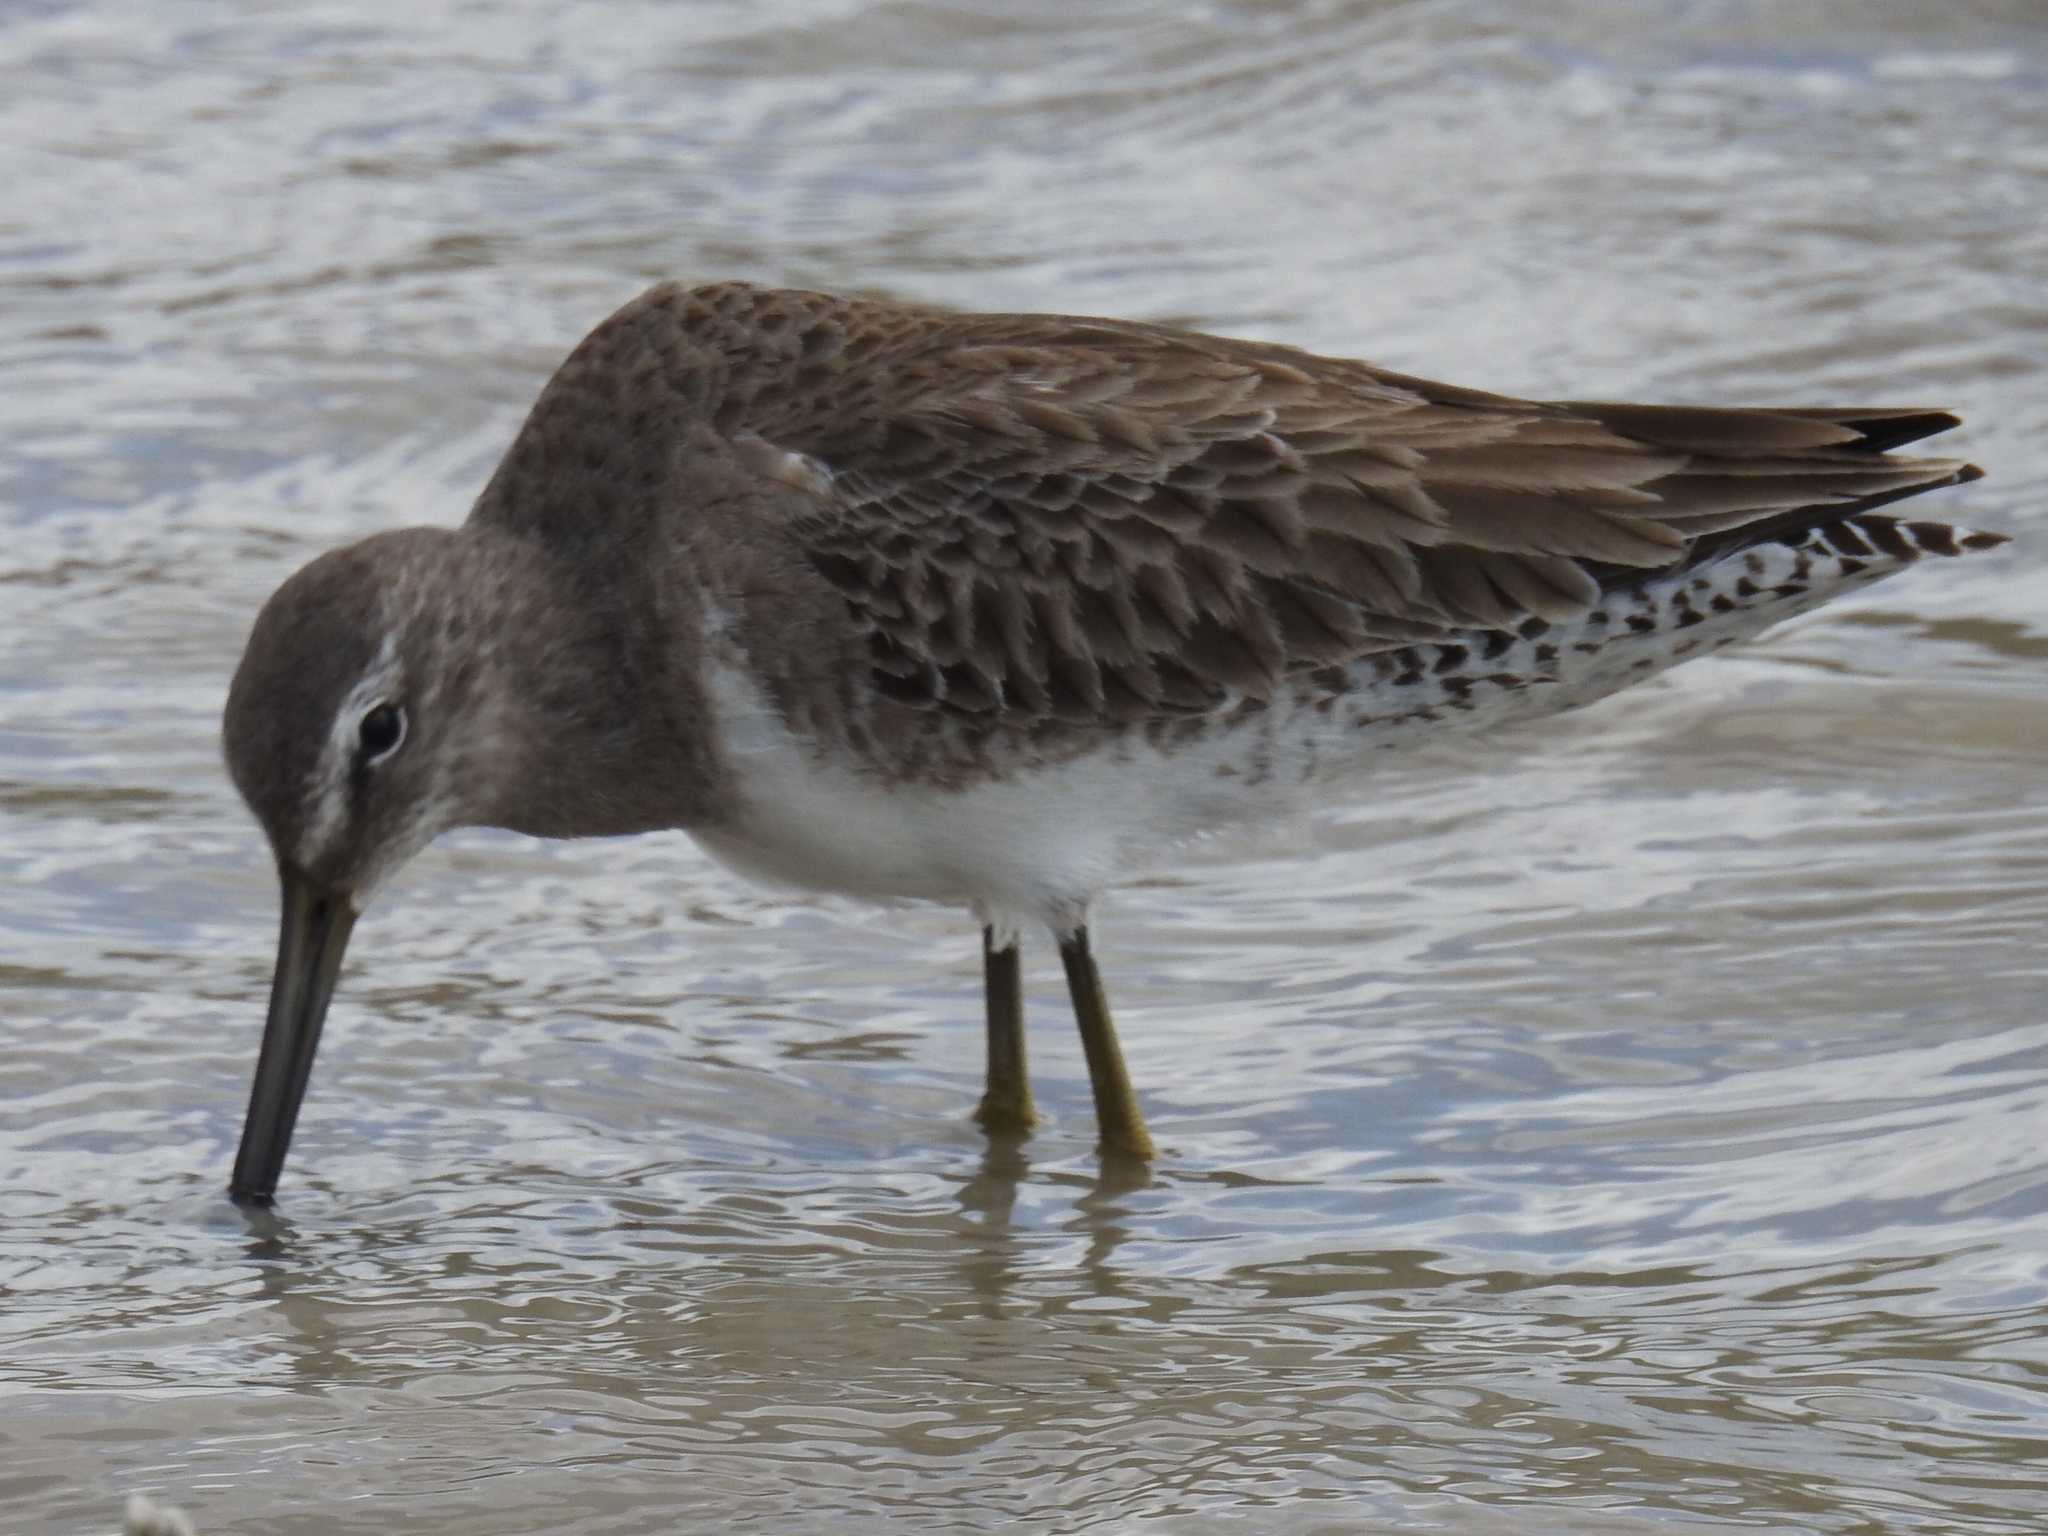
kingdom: Animalia
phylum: Chordata
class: Aves
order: Charadriiformes
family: Scolopacidae
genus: Limnodromus
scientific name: Limnodromus scolopaceus
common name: Long-billed dowitcher
